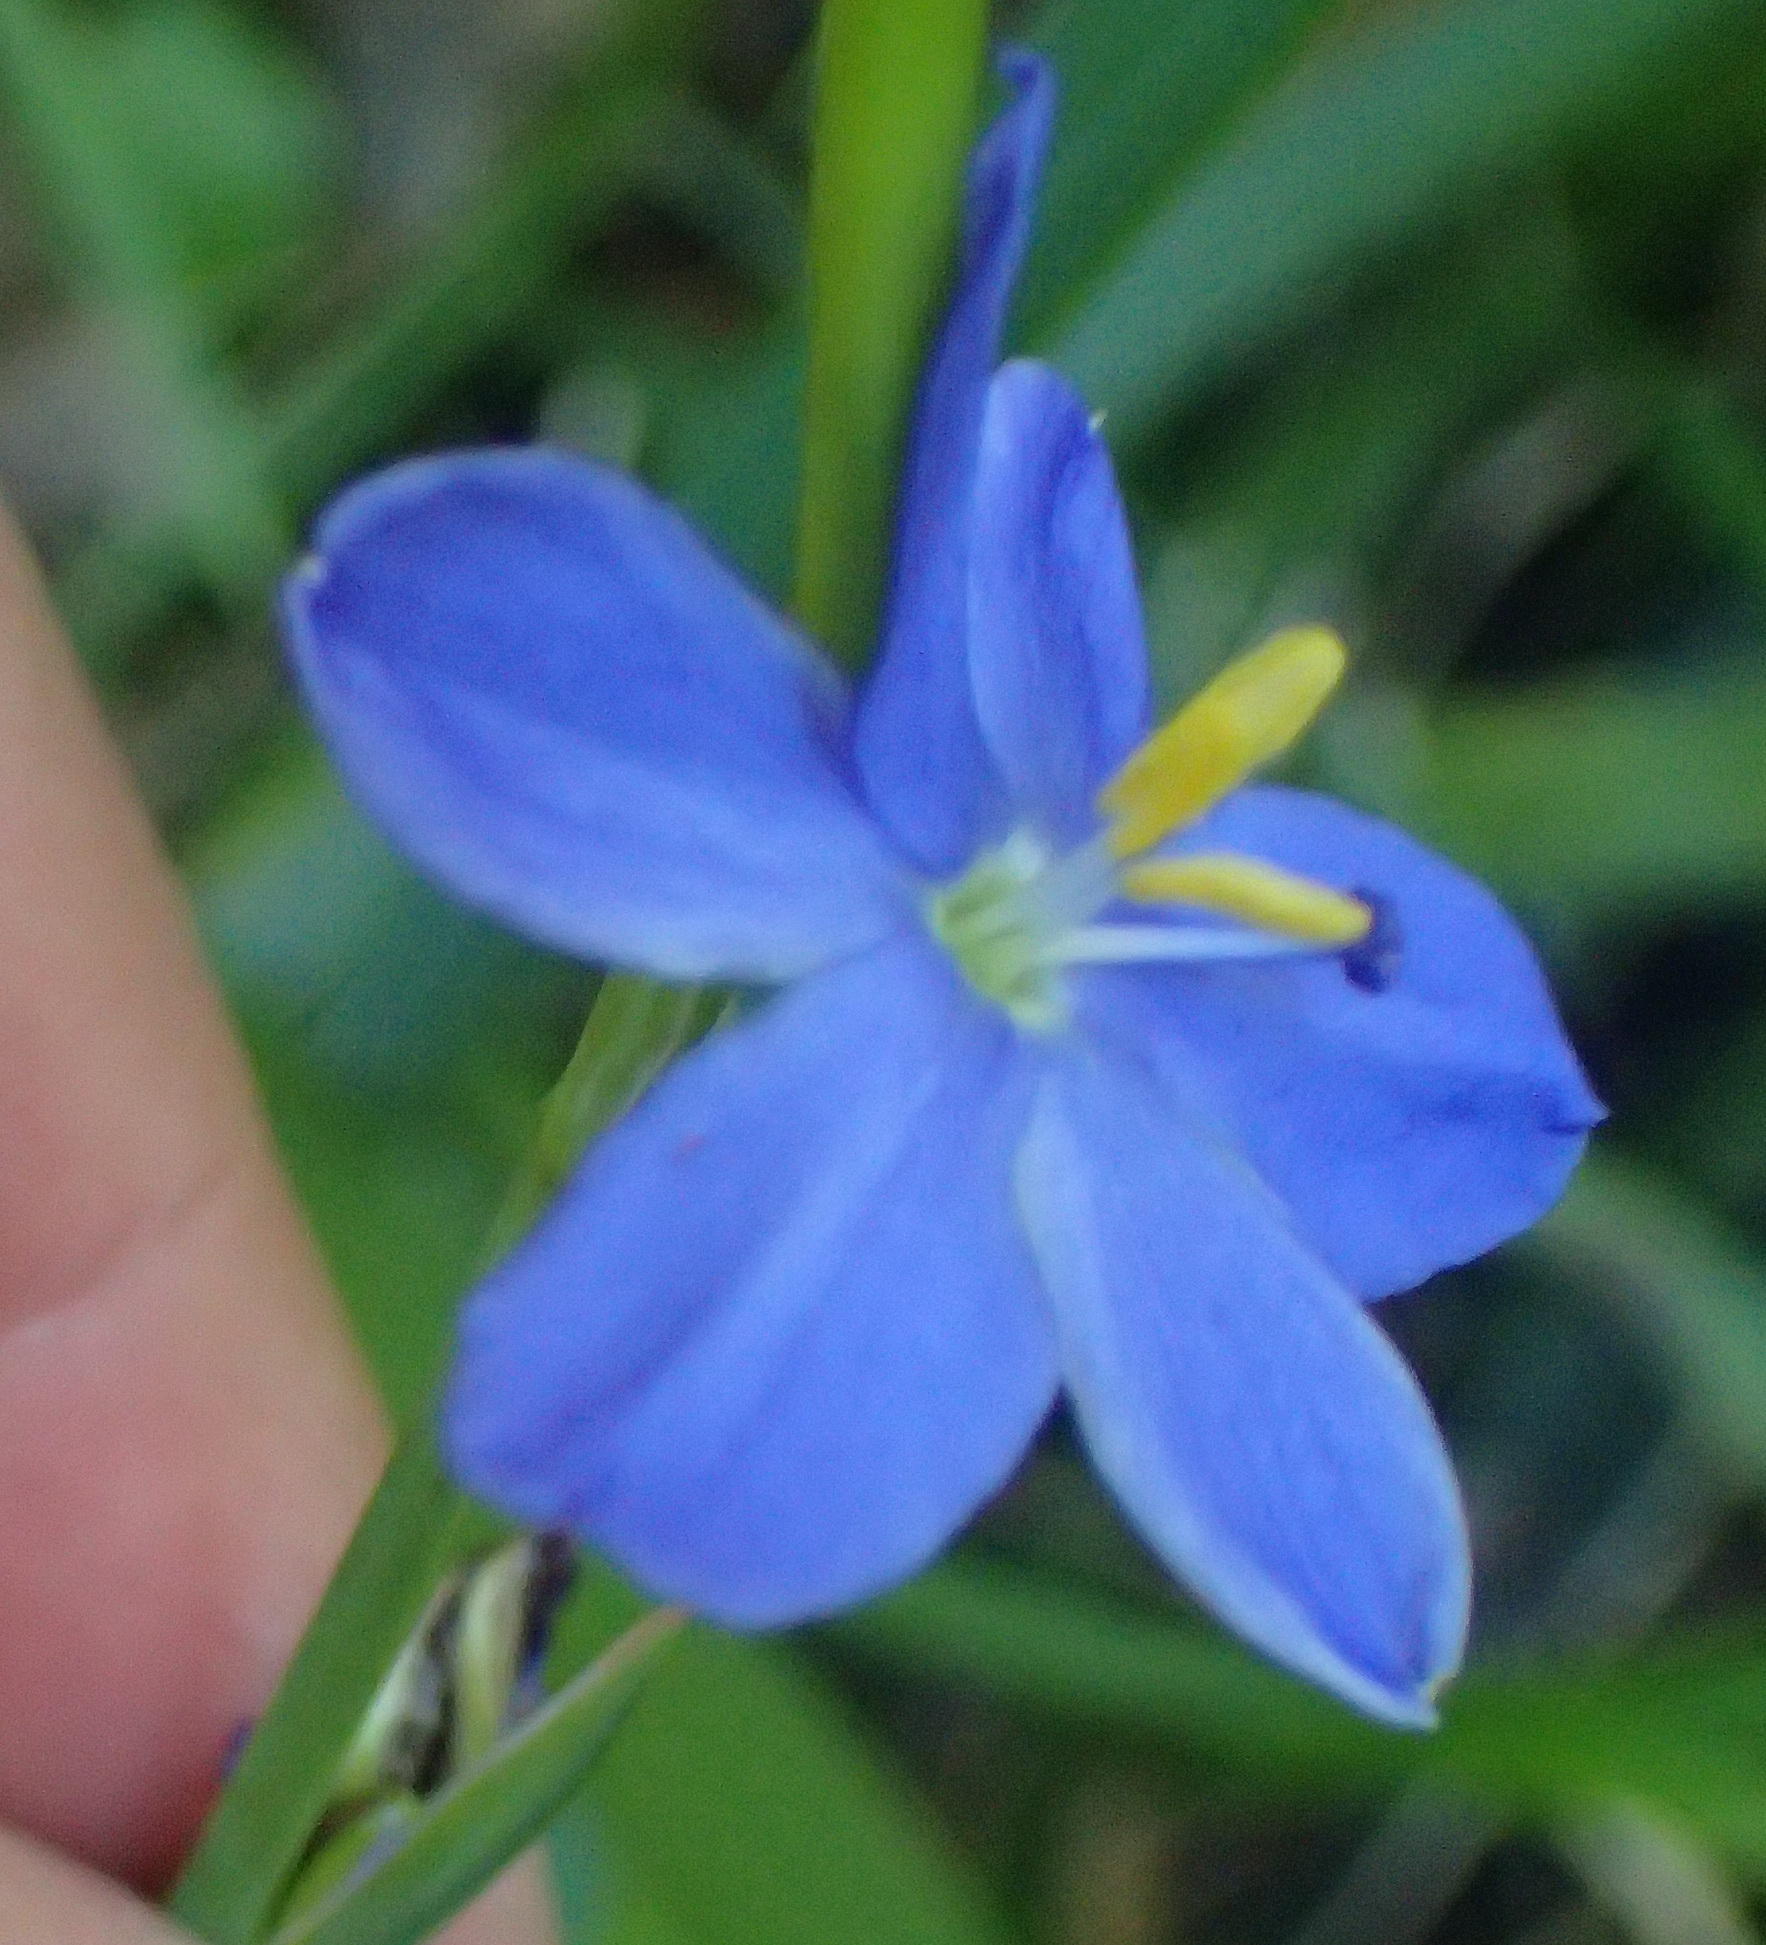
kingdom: Plantae
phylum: Tracheophyta
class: Liliopsida
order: Asparagales
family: Iridaceae
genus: Aristea
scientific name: Aristea ensifolia
